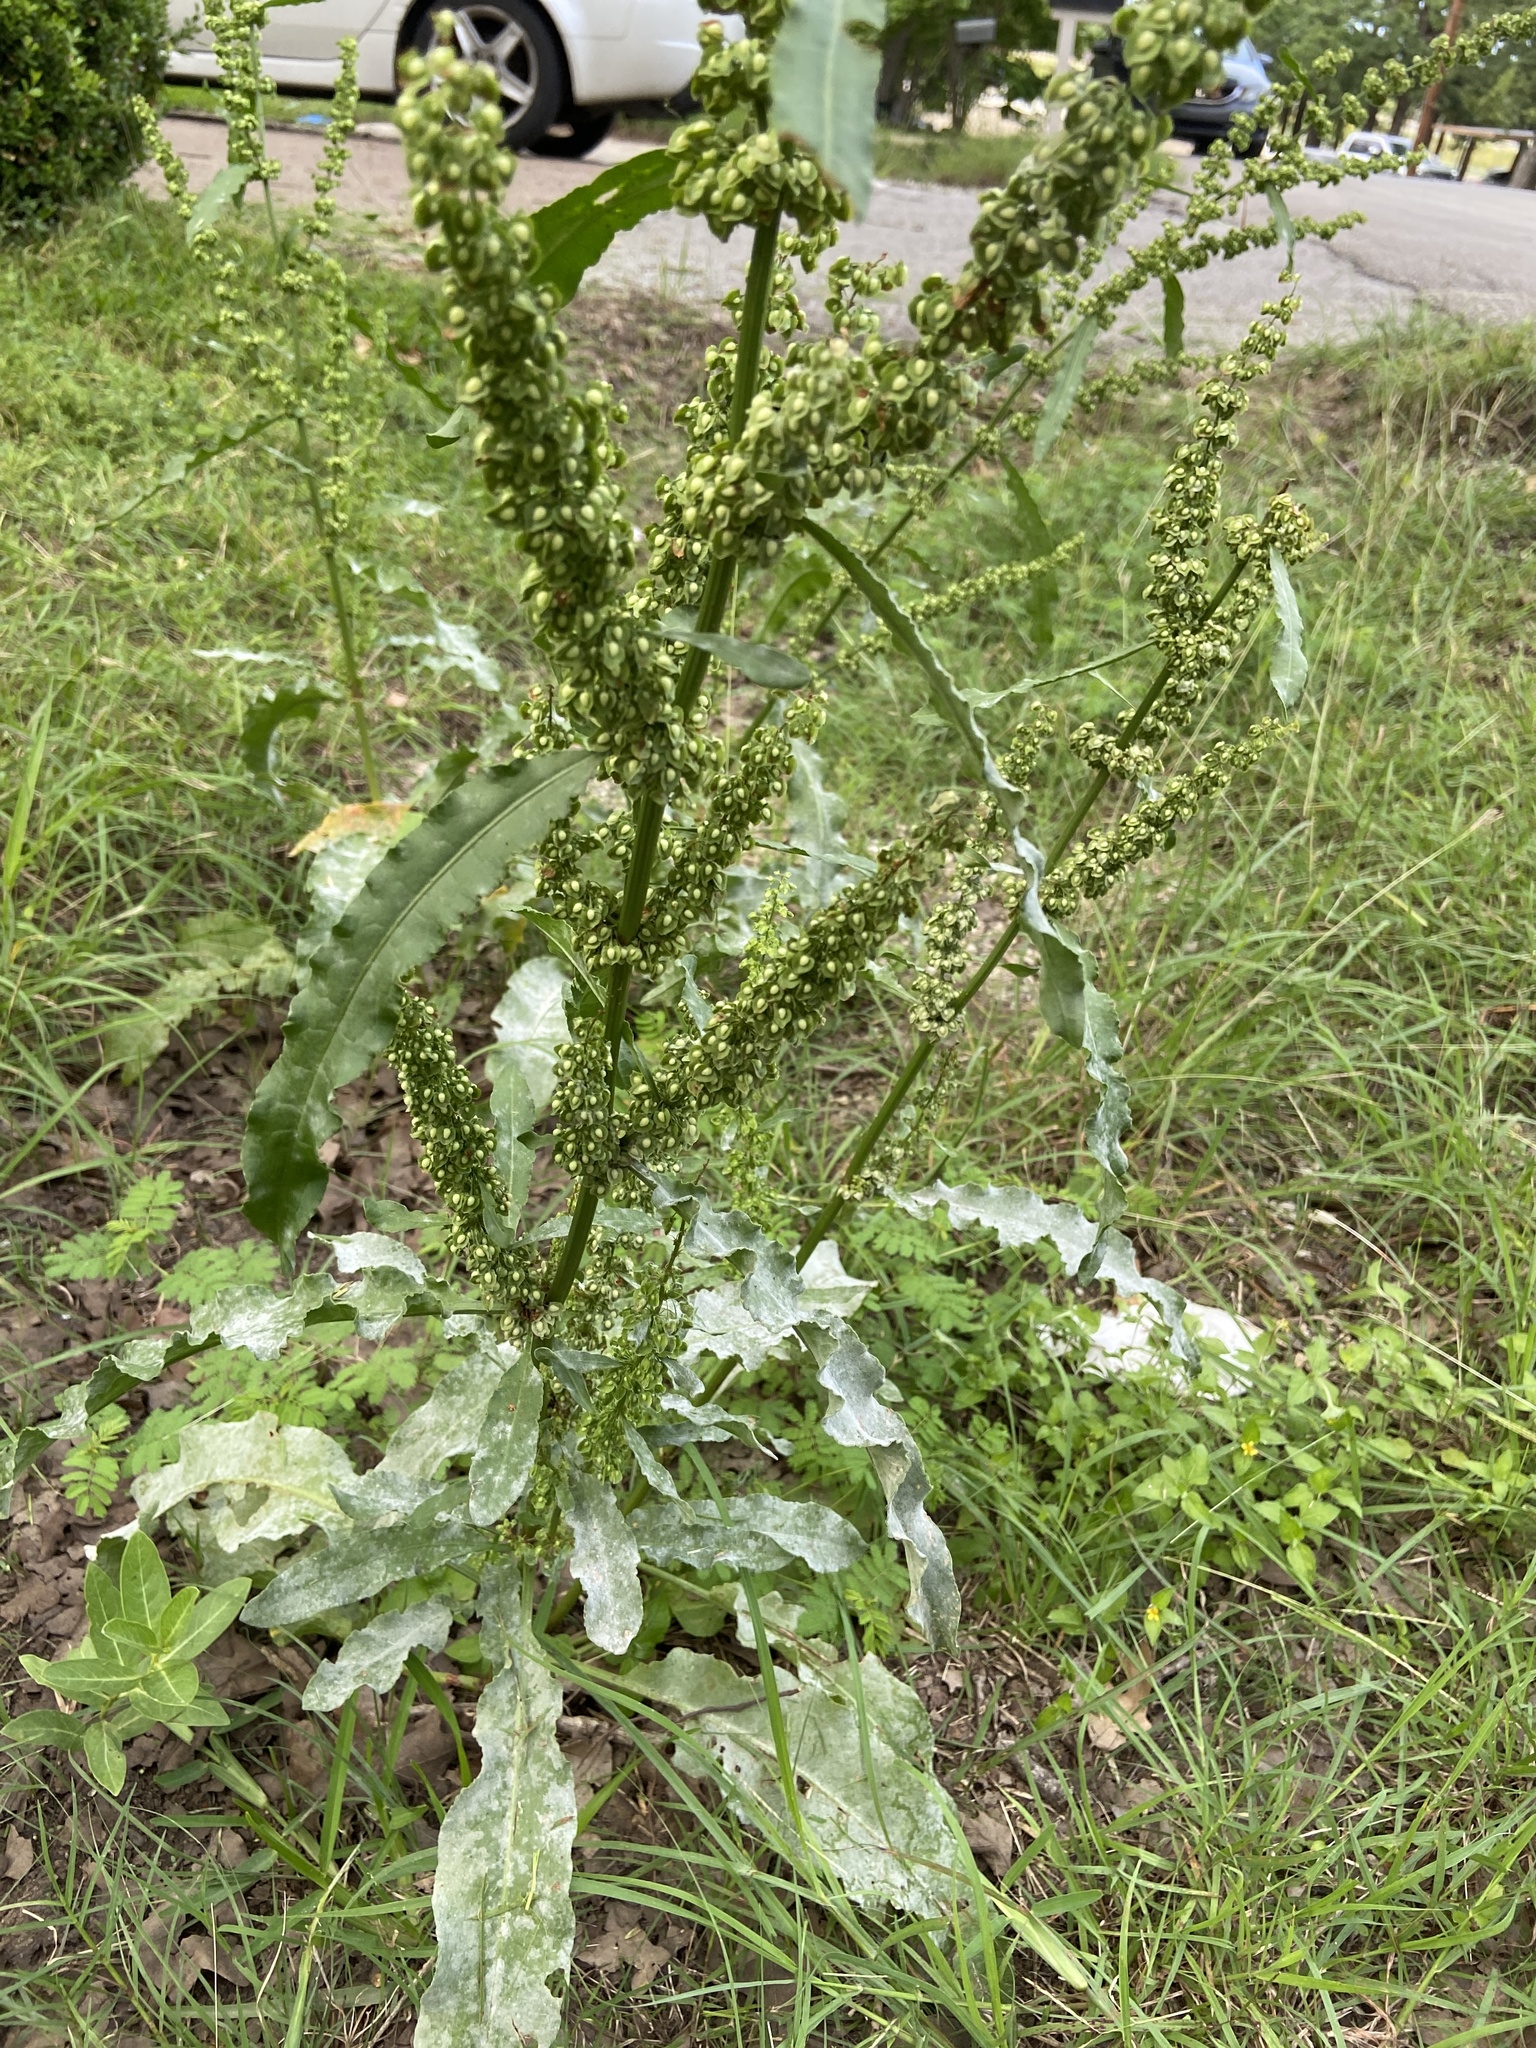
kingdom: Plantae
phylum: Tracheophyta
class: Magnoliopsida
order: Caryophyllales
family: Polygonaceae
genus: Rumex
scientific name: Rumex crispus
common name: Curled dock
